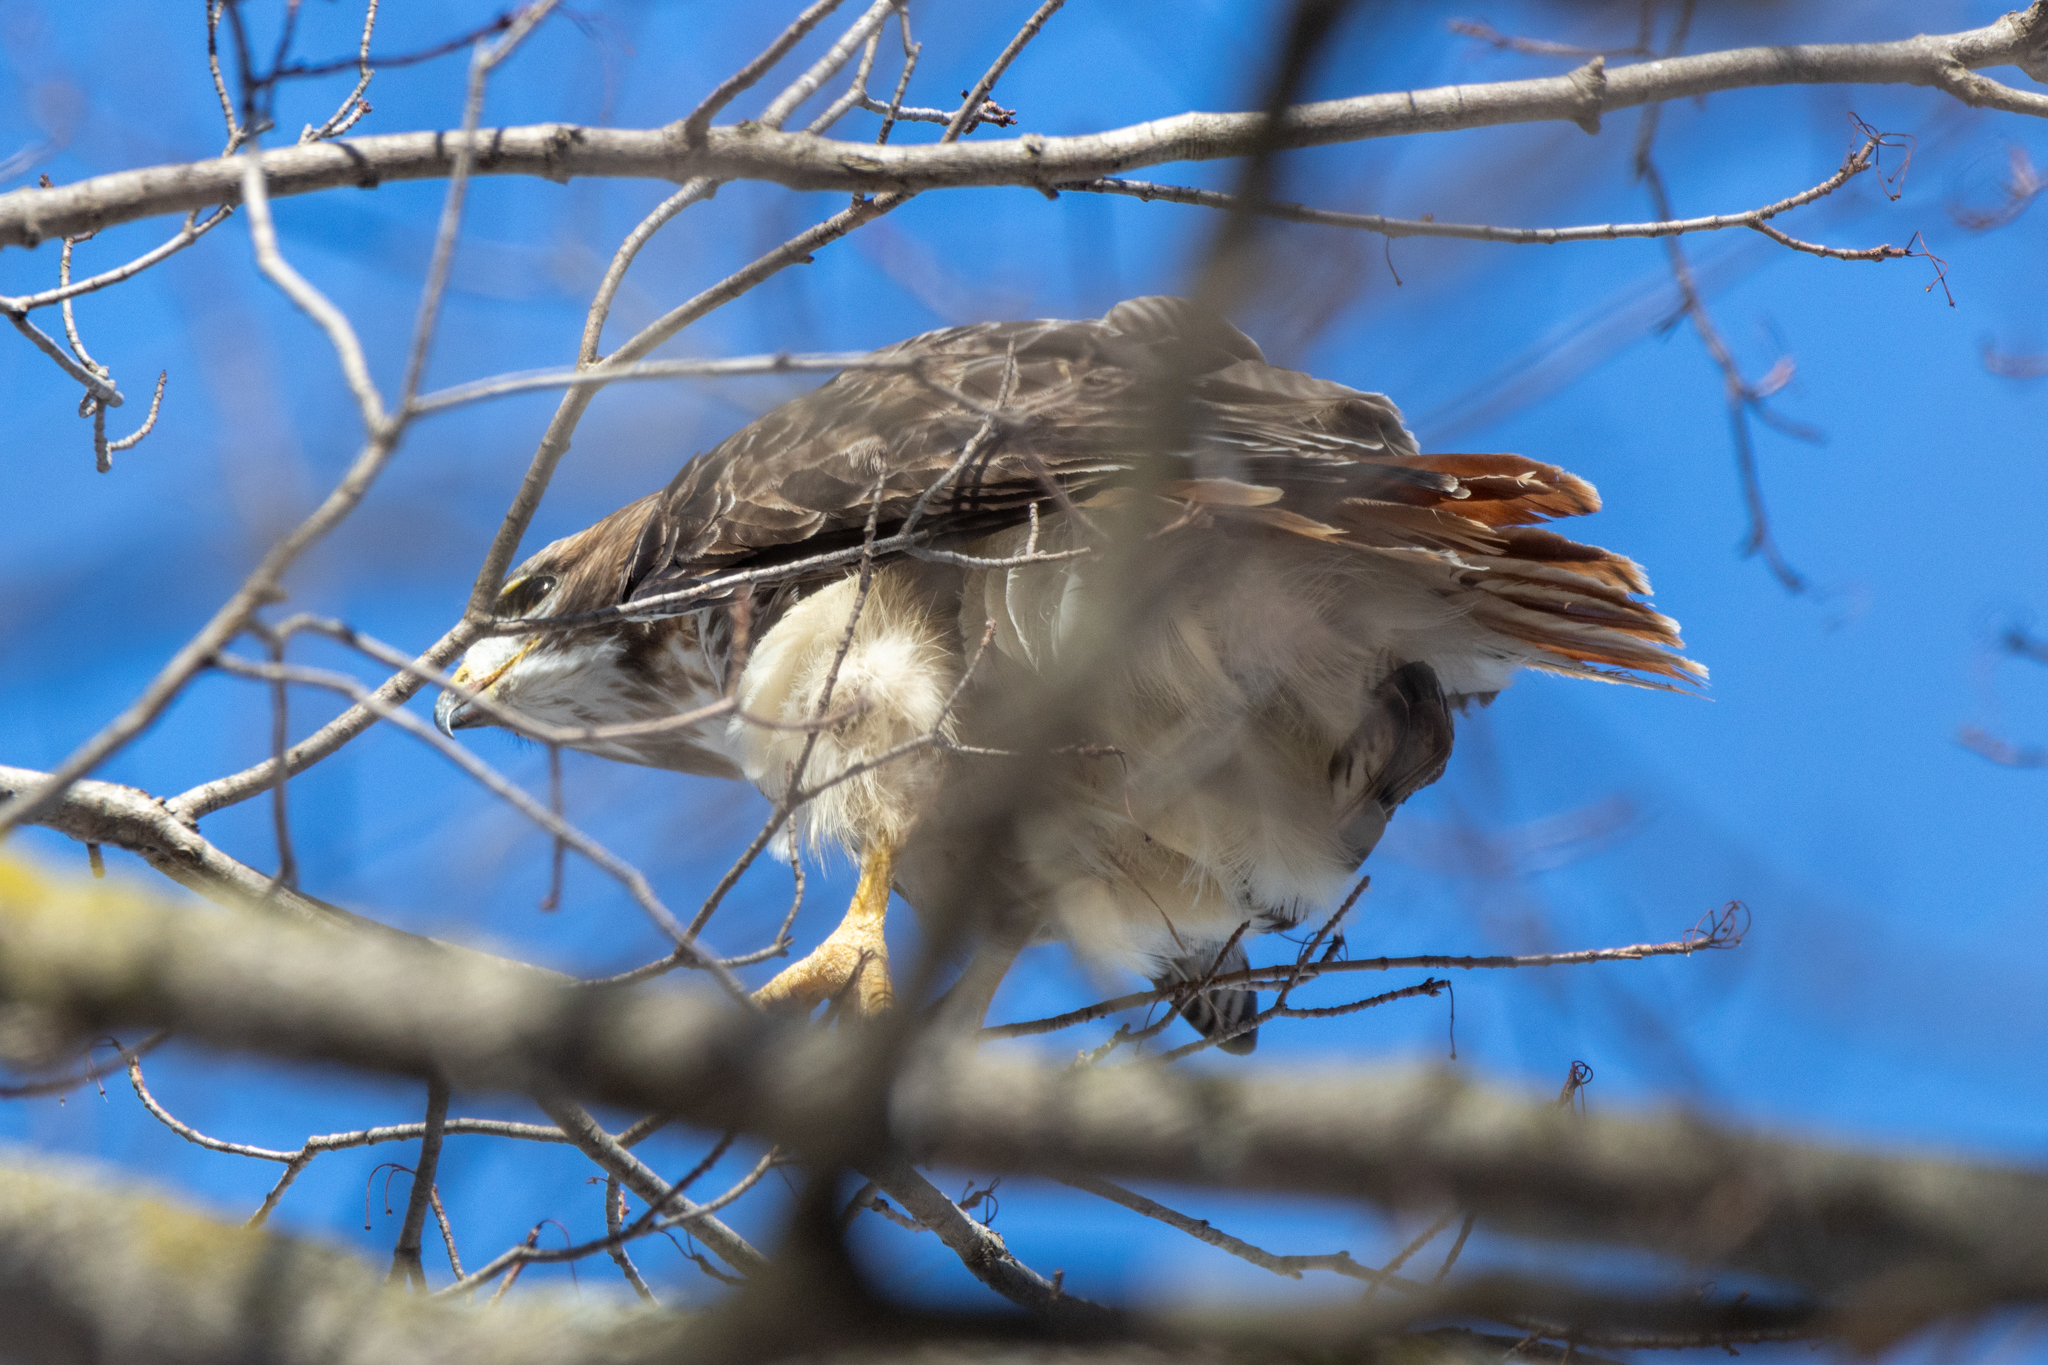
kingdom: Animalia
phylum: Chordata
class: Aves
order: Accipitriformes
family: Accipitridae
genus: Buteo
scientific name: Buteo jamaicensis
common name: Red-tailed hawk
